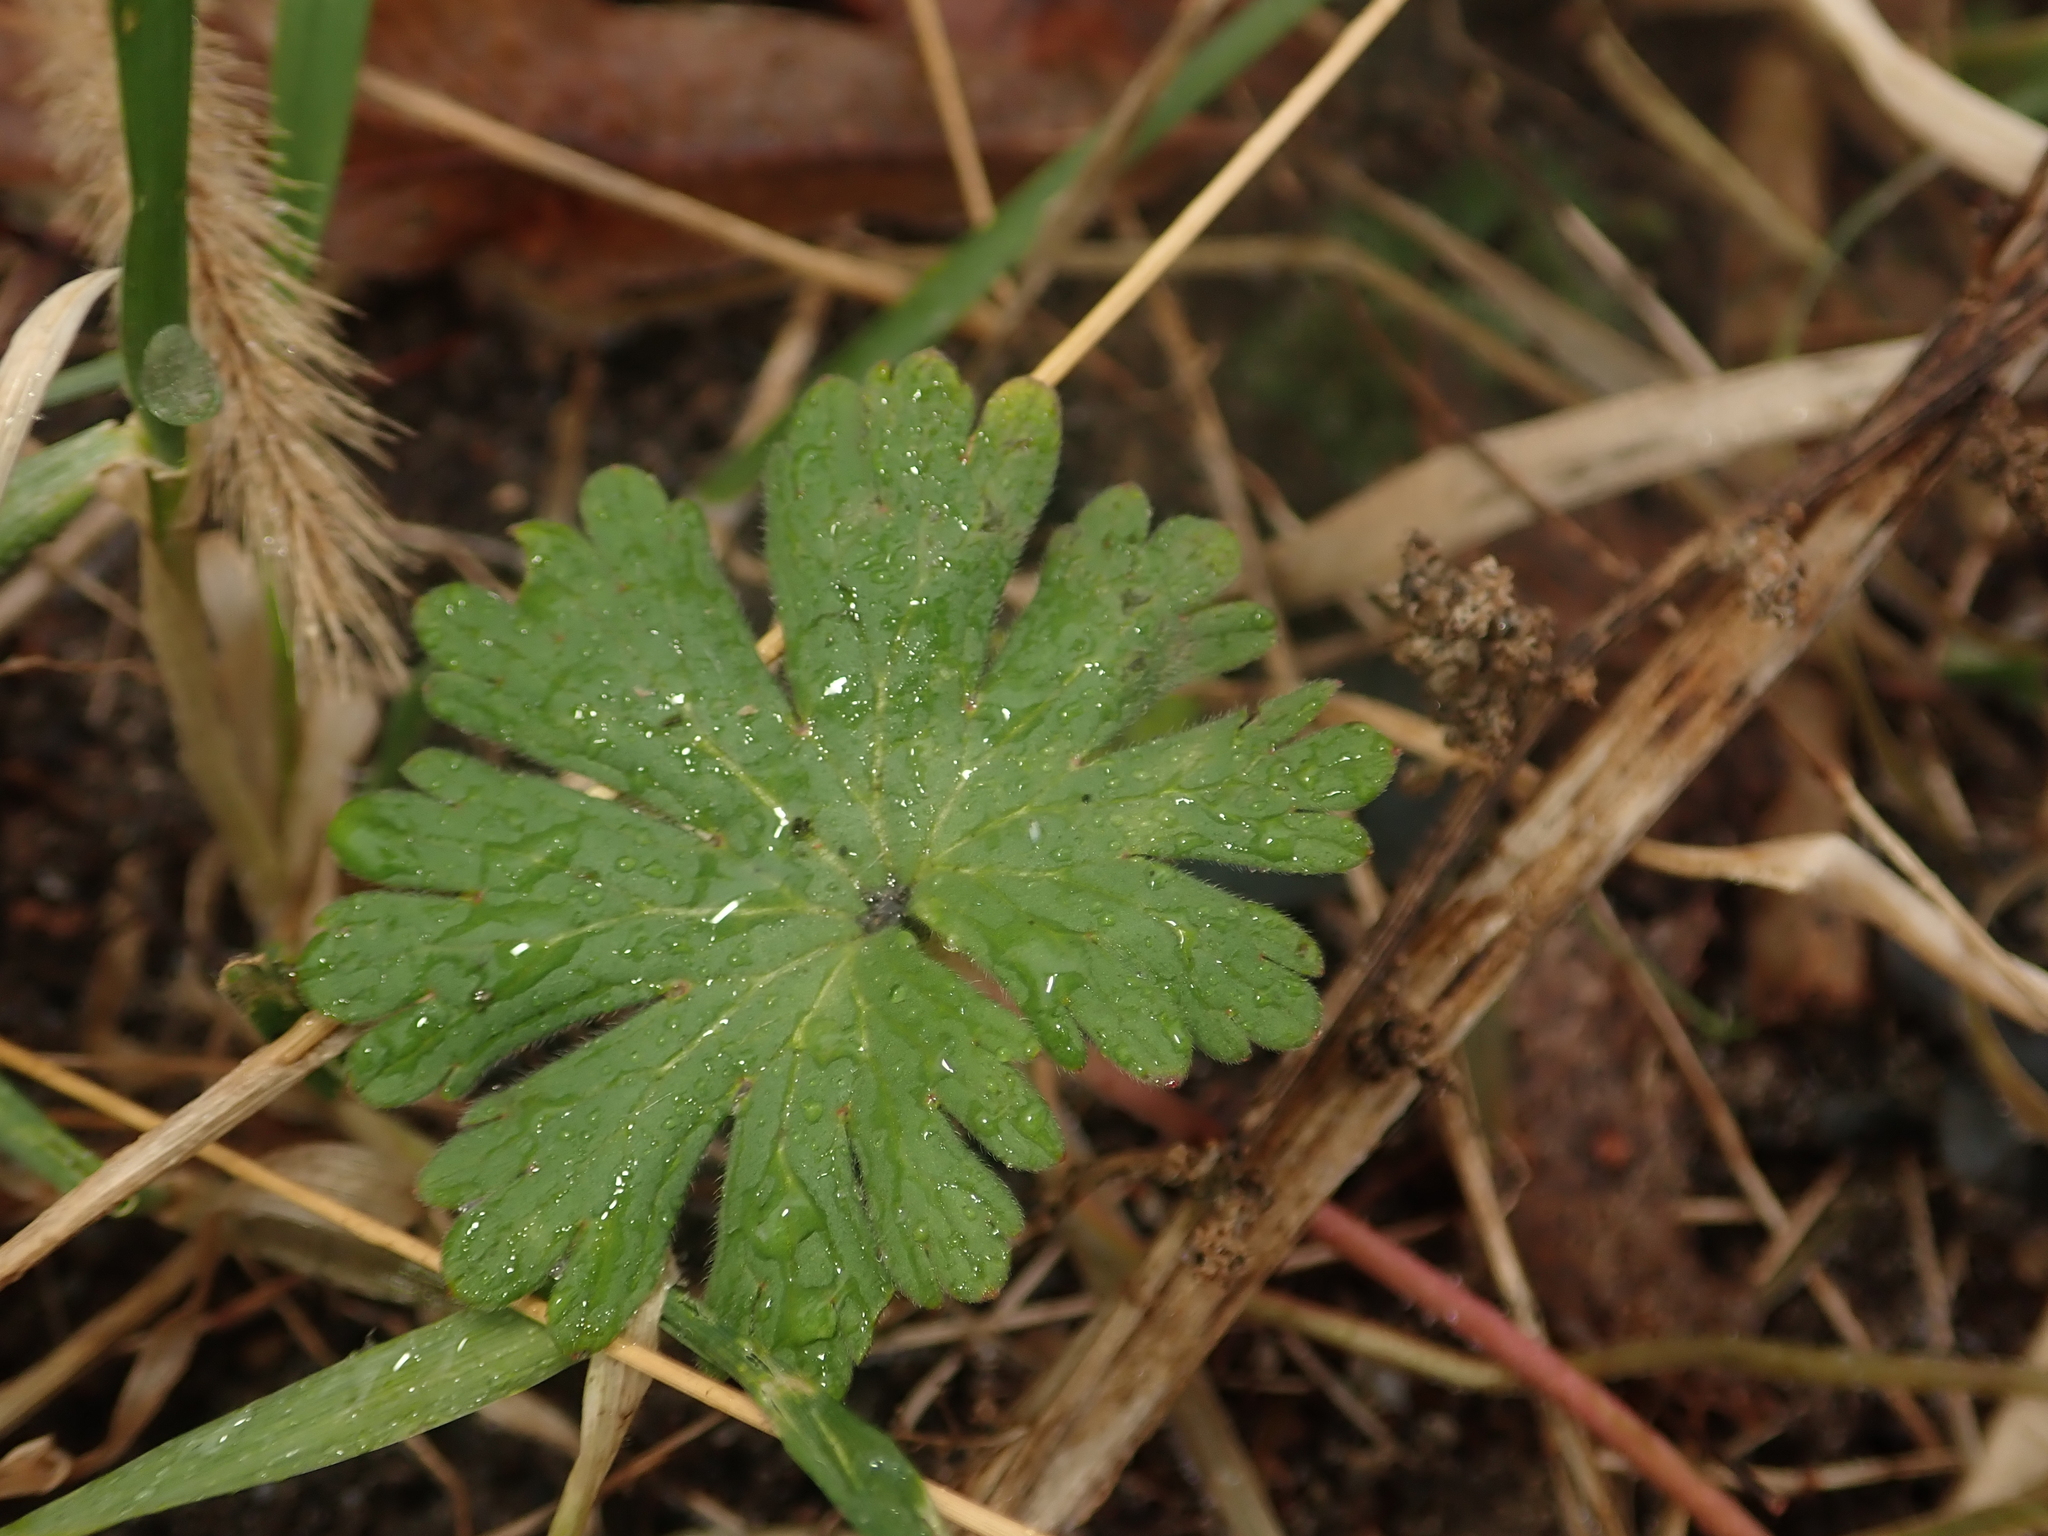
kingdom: Plantae
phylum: Tracheophyta
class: Magnoliopsida
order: Geraniales
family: Geraniaceae
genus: Geranium
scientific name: Geranium molle
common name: Dove's-foot crane's-bill
